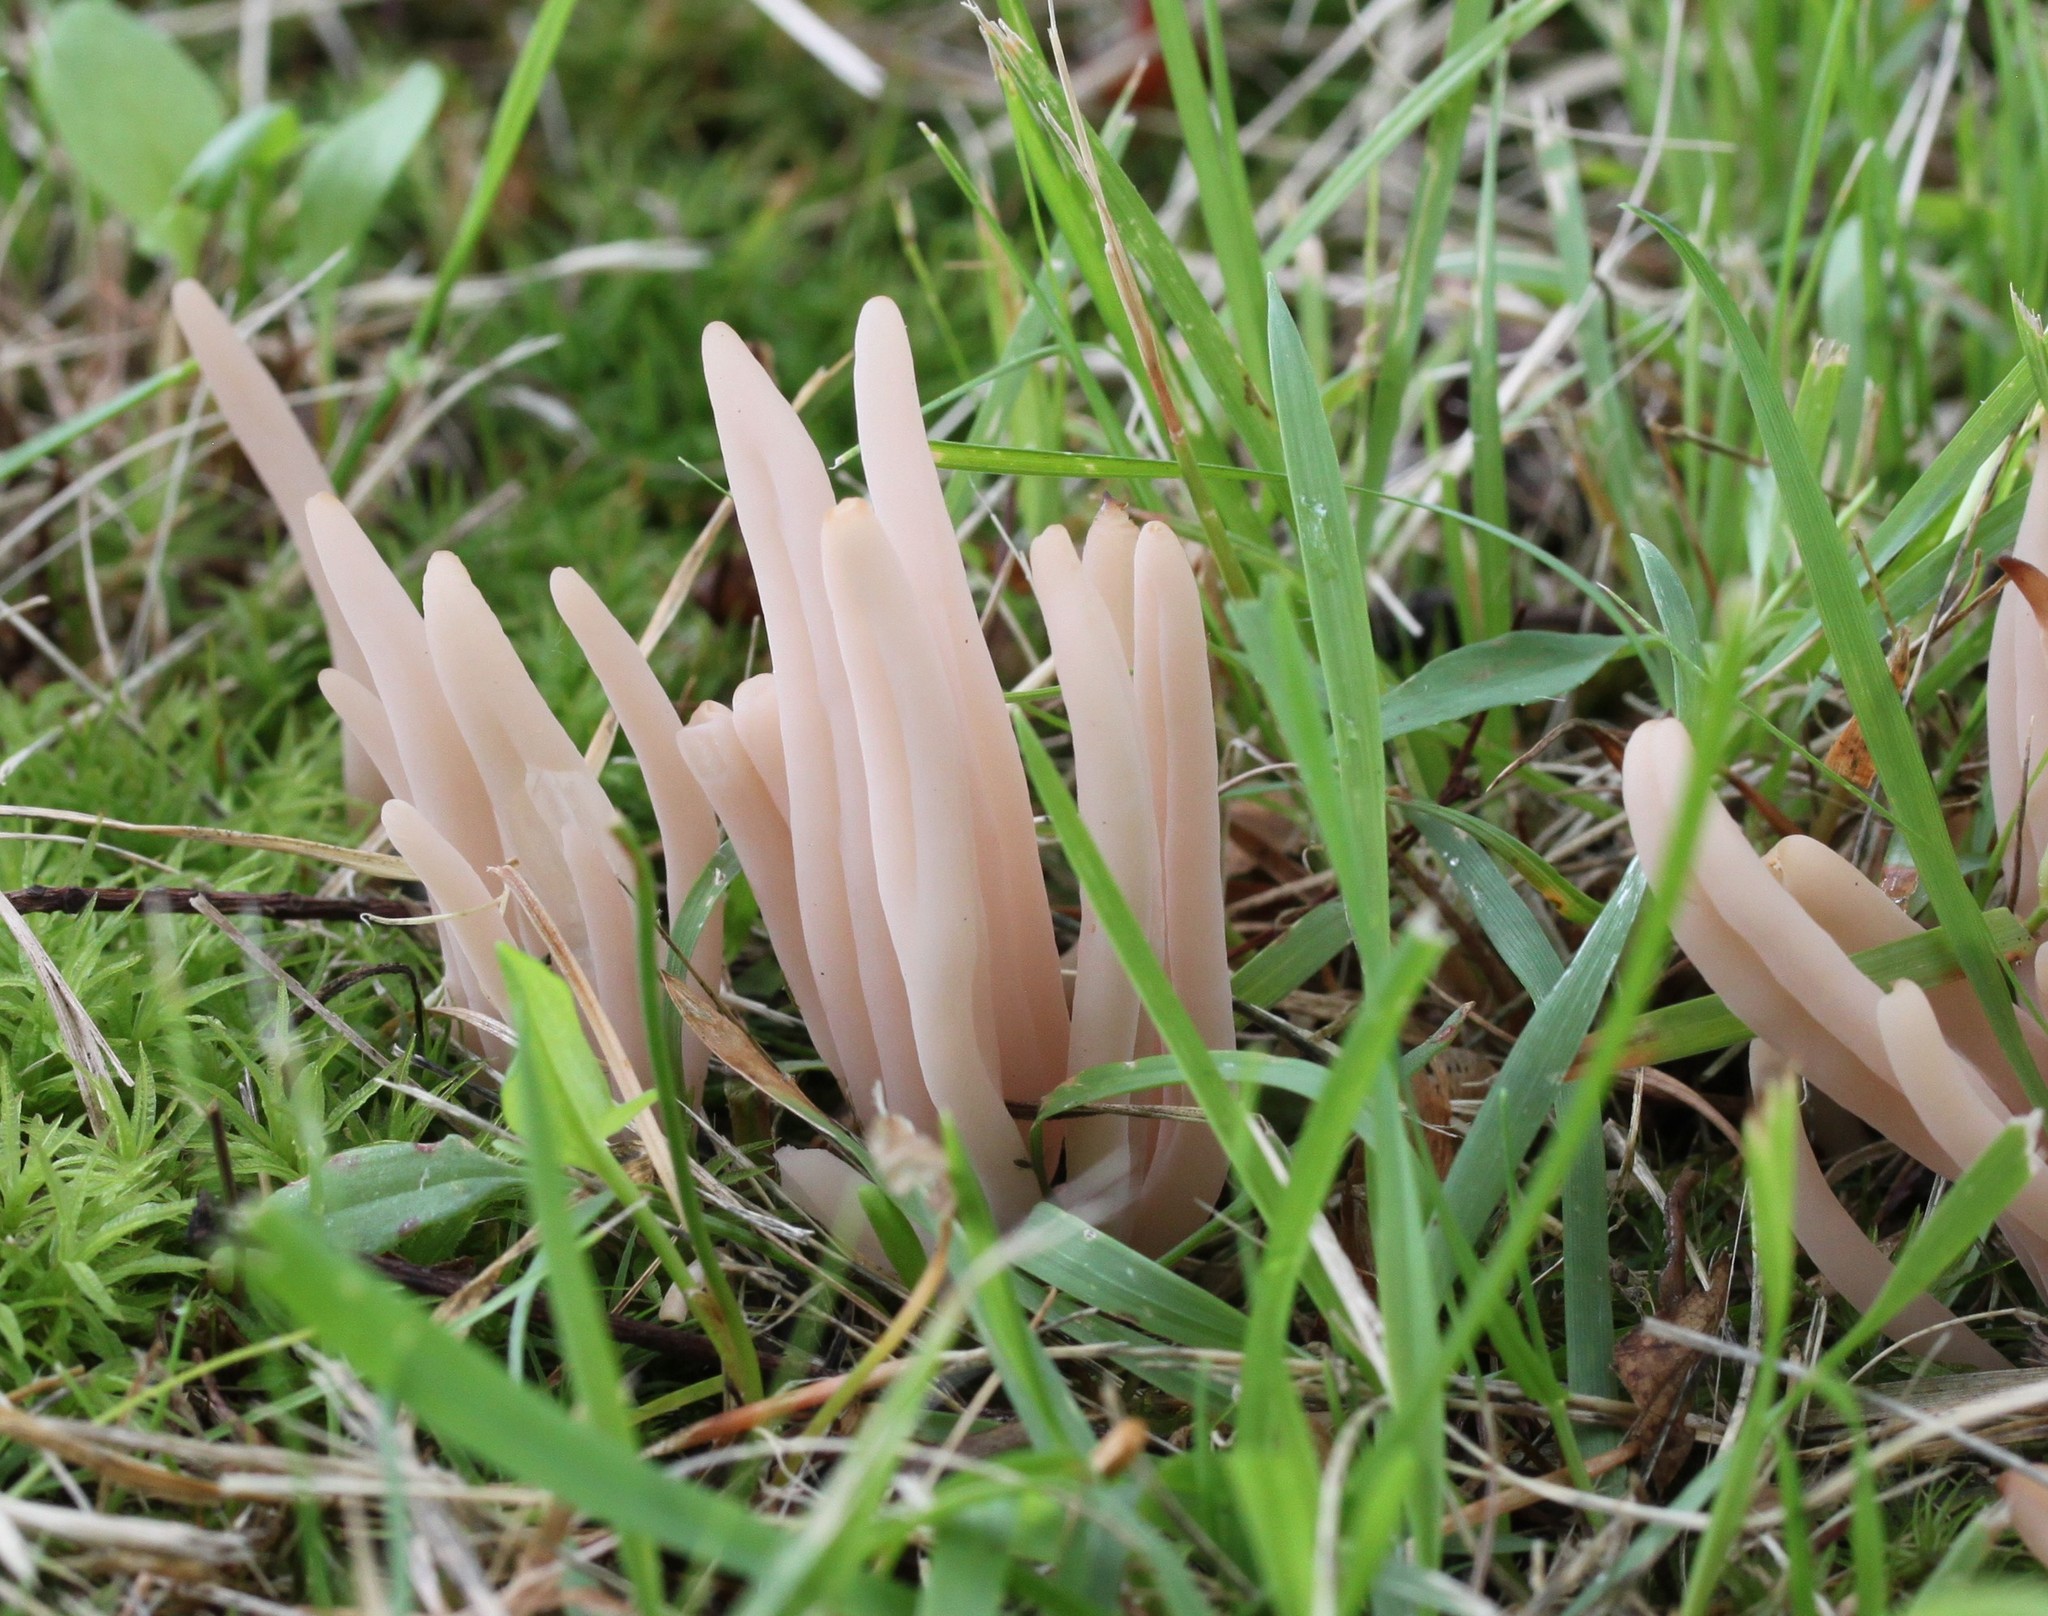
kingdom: Fungi
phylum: Basidiomycota
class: Agaricomycetes
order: Agaricales
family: Clavariaceae
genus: Clavaria
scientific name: Clavaria fumosa
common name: Smoky spindles
